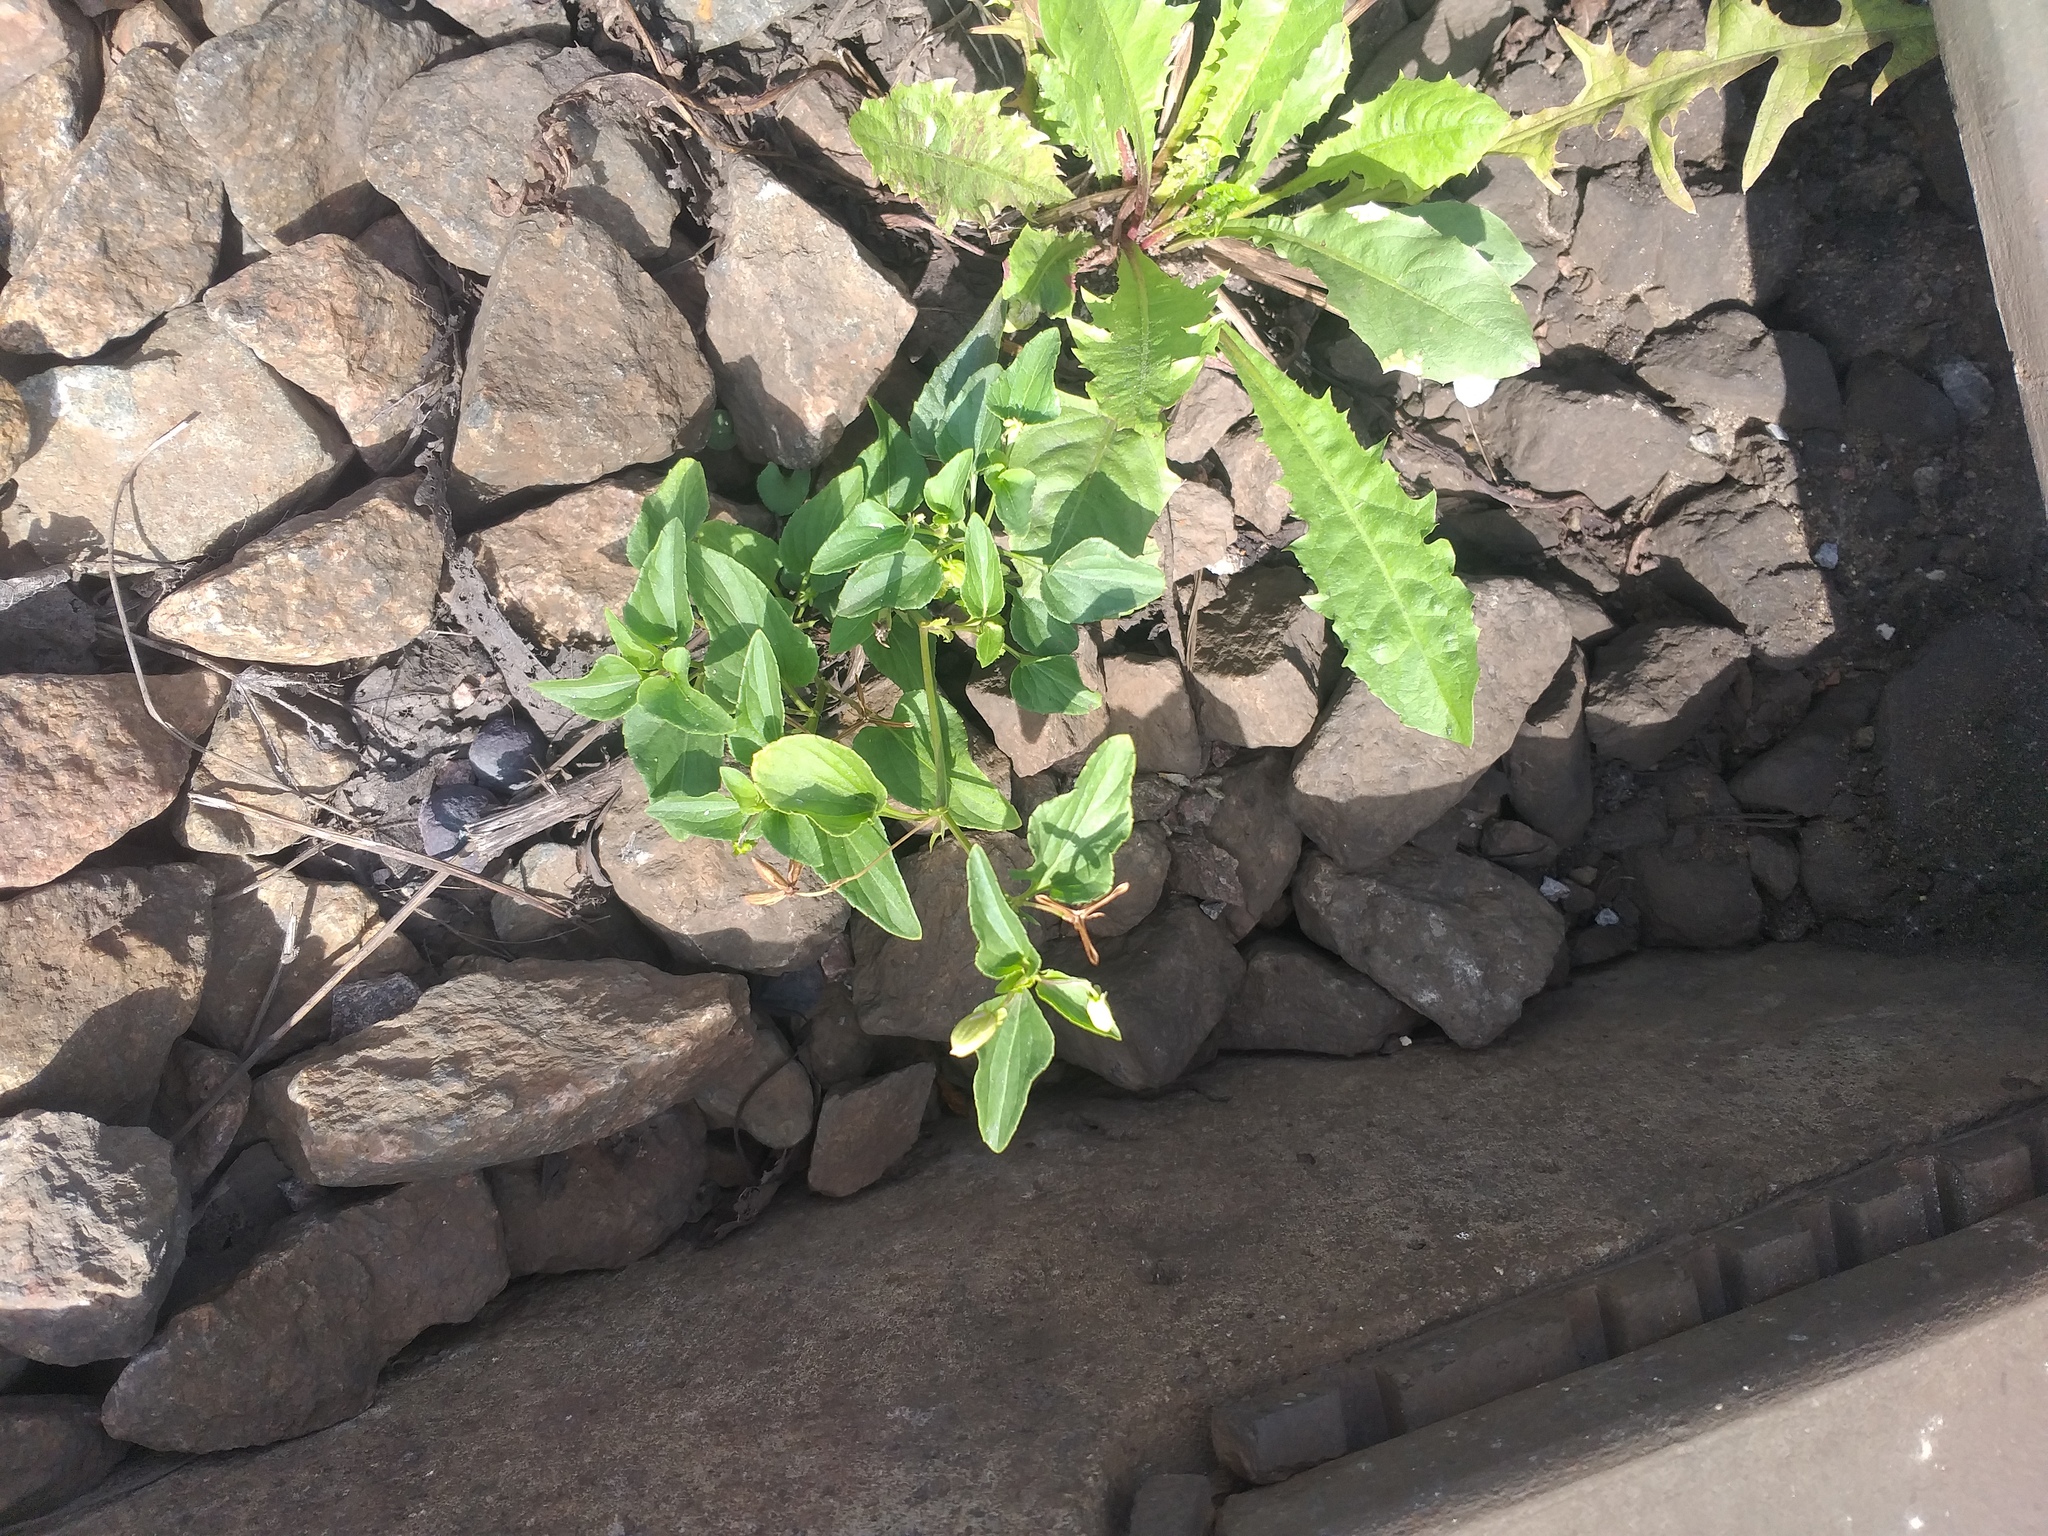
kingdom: Plantae
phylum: Tracheophyta
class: Magnoliopsida
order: Malpighiales
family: Violaceae
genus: Viola
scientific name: Viola canina
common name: Heath dog-violet
